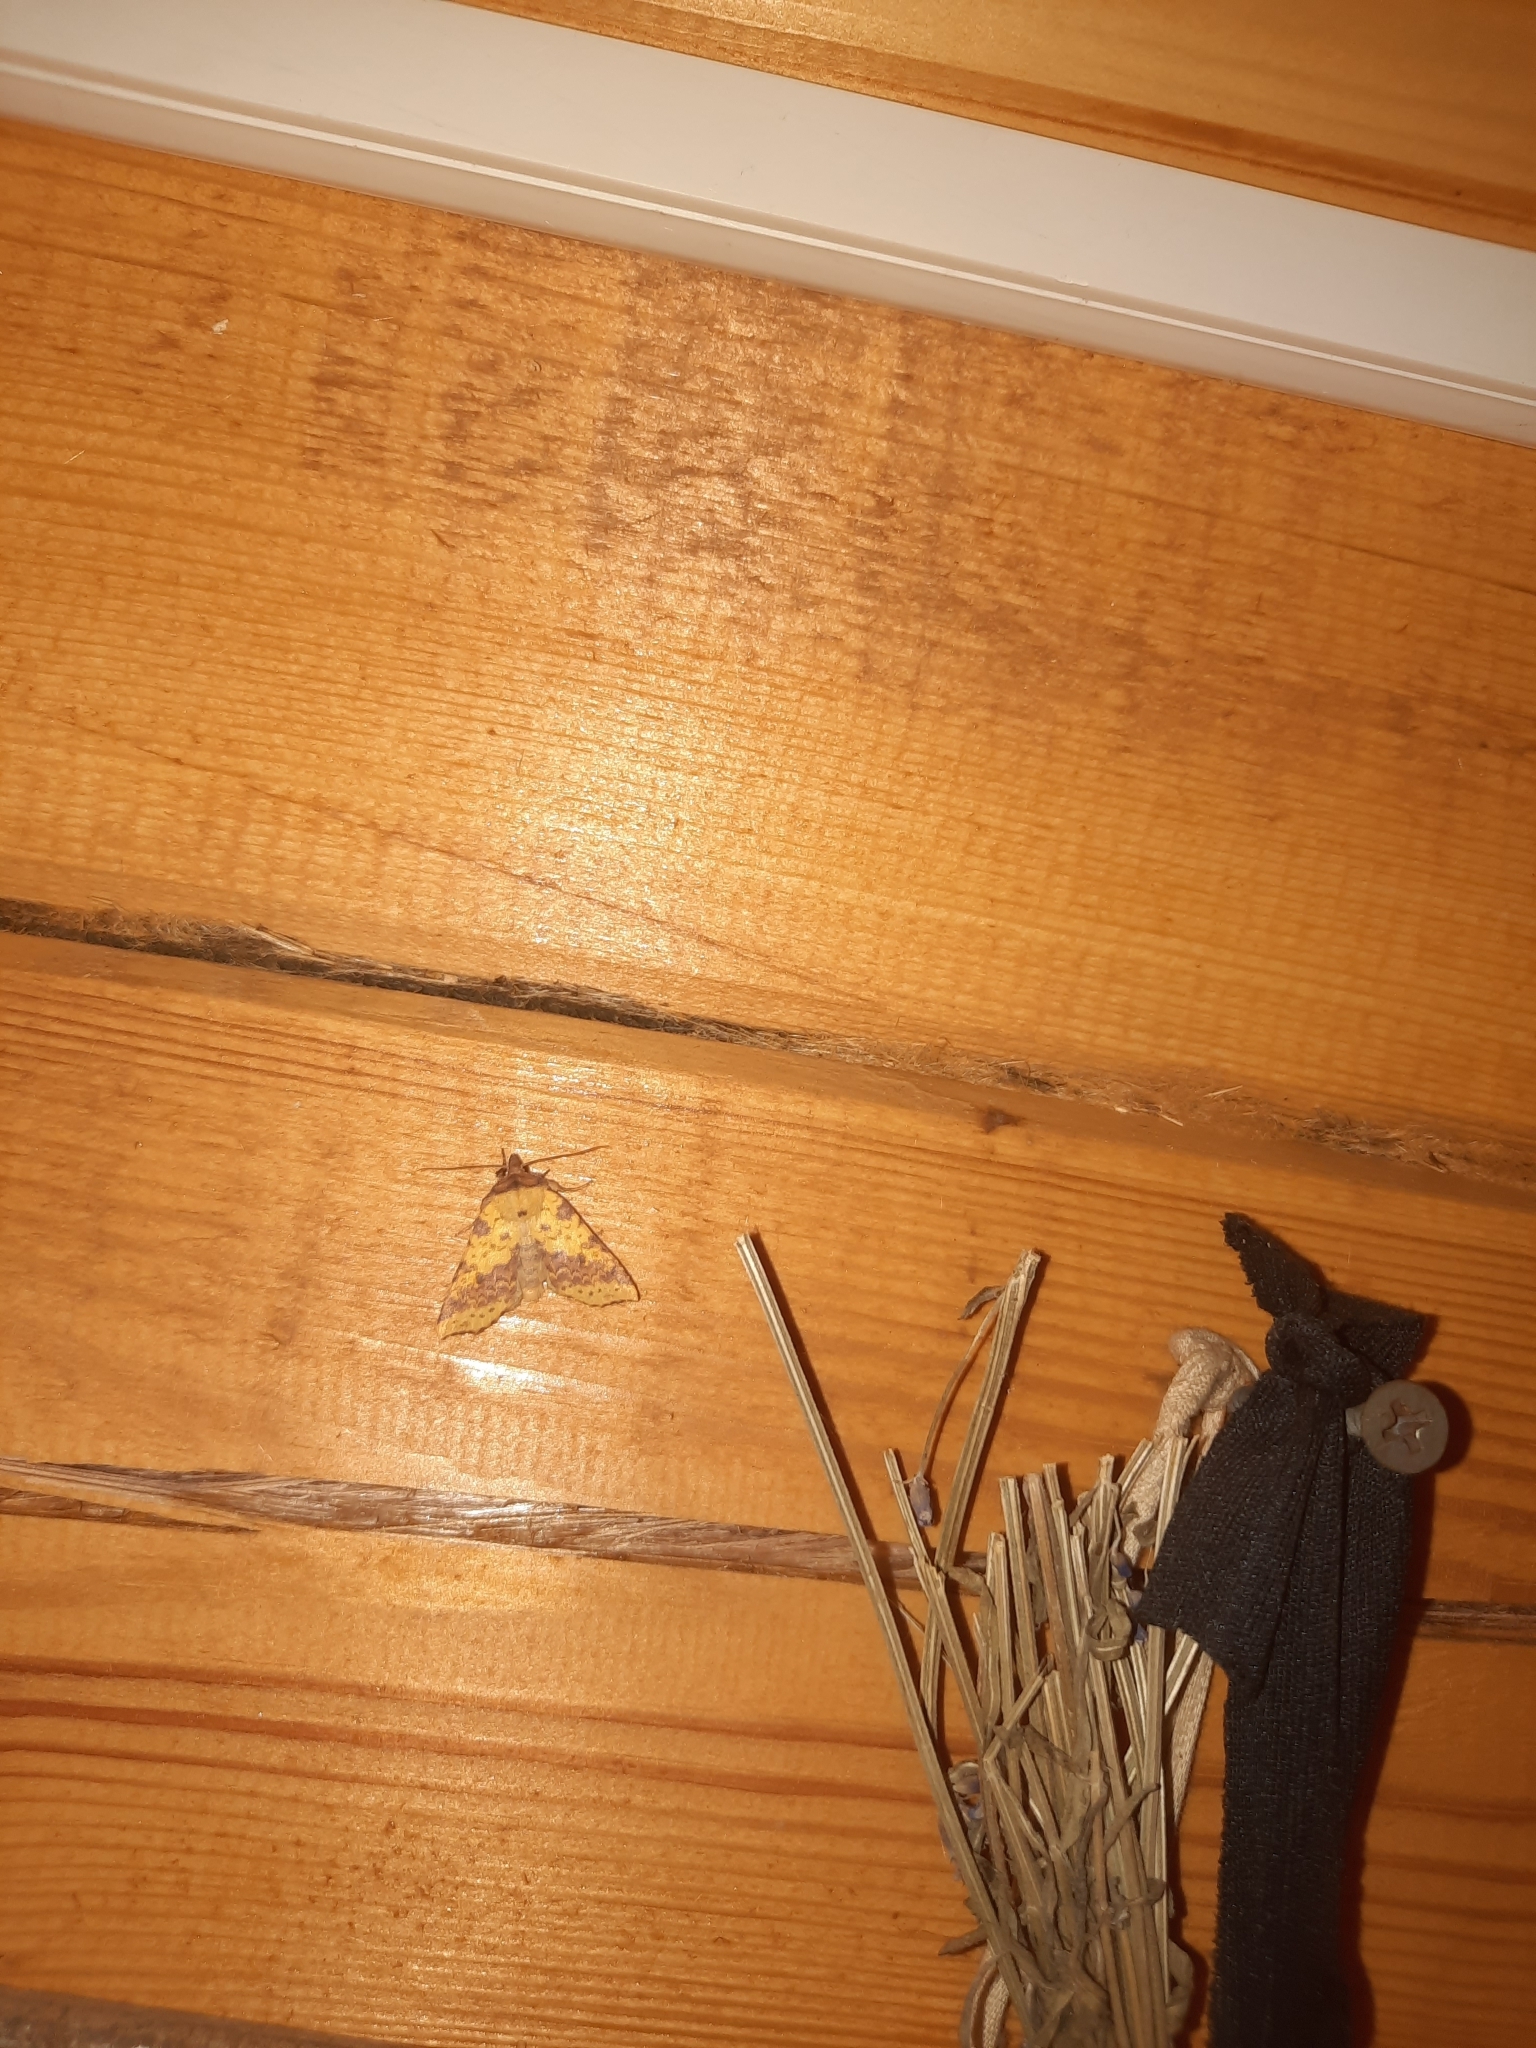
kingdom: Animalia
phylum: Arthropoda
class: Insecta
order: Lepidoptera
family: Noctuidae
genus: Xanthia
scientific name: Xanthia togata
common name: Pink-barred sallow
